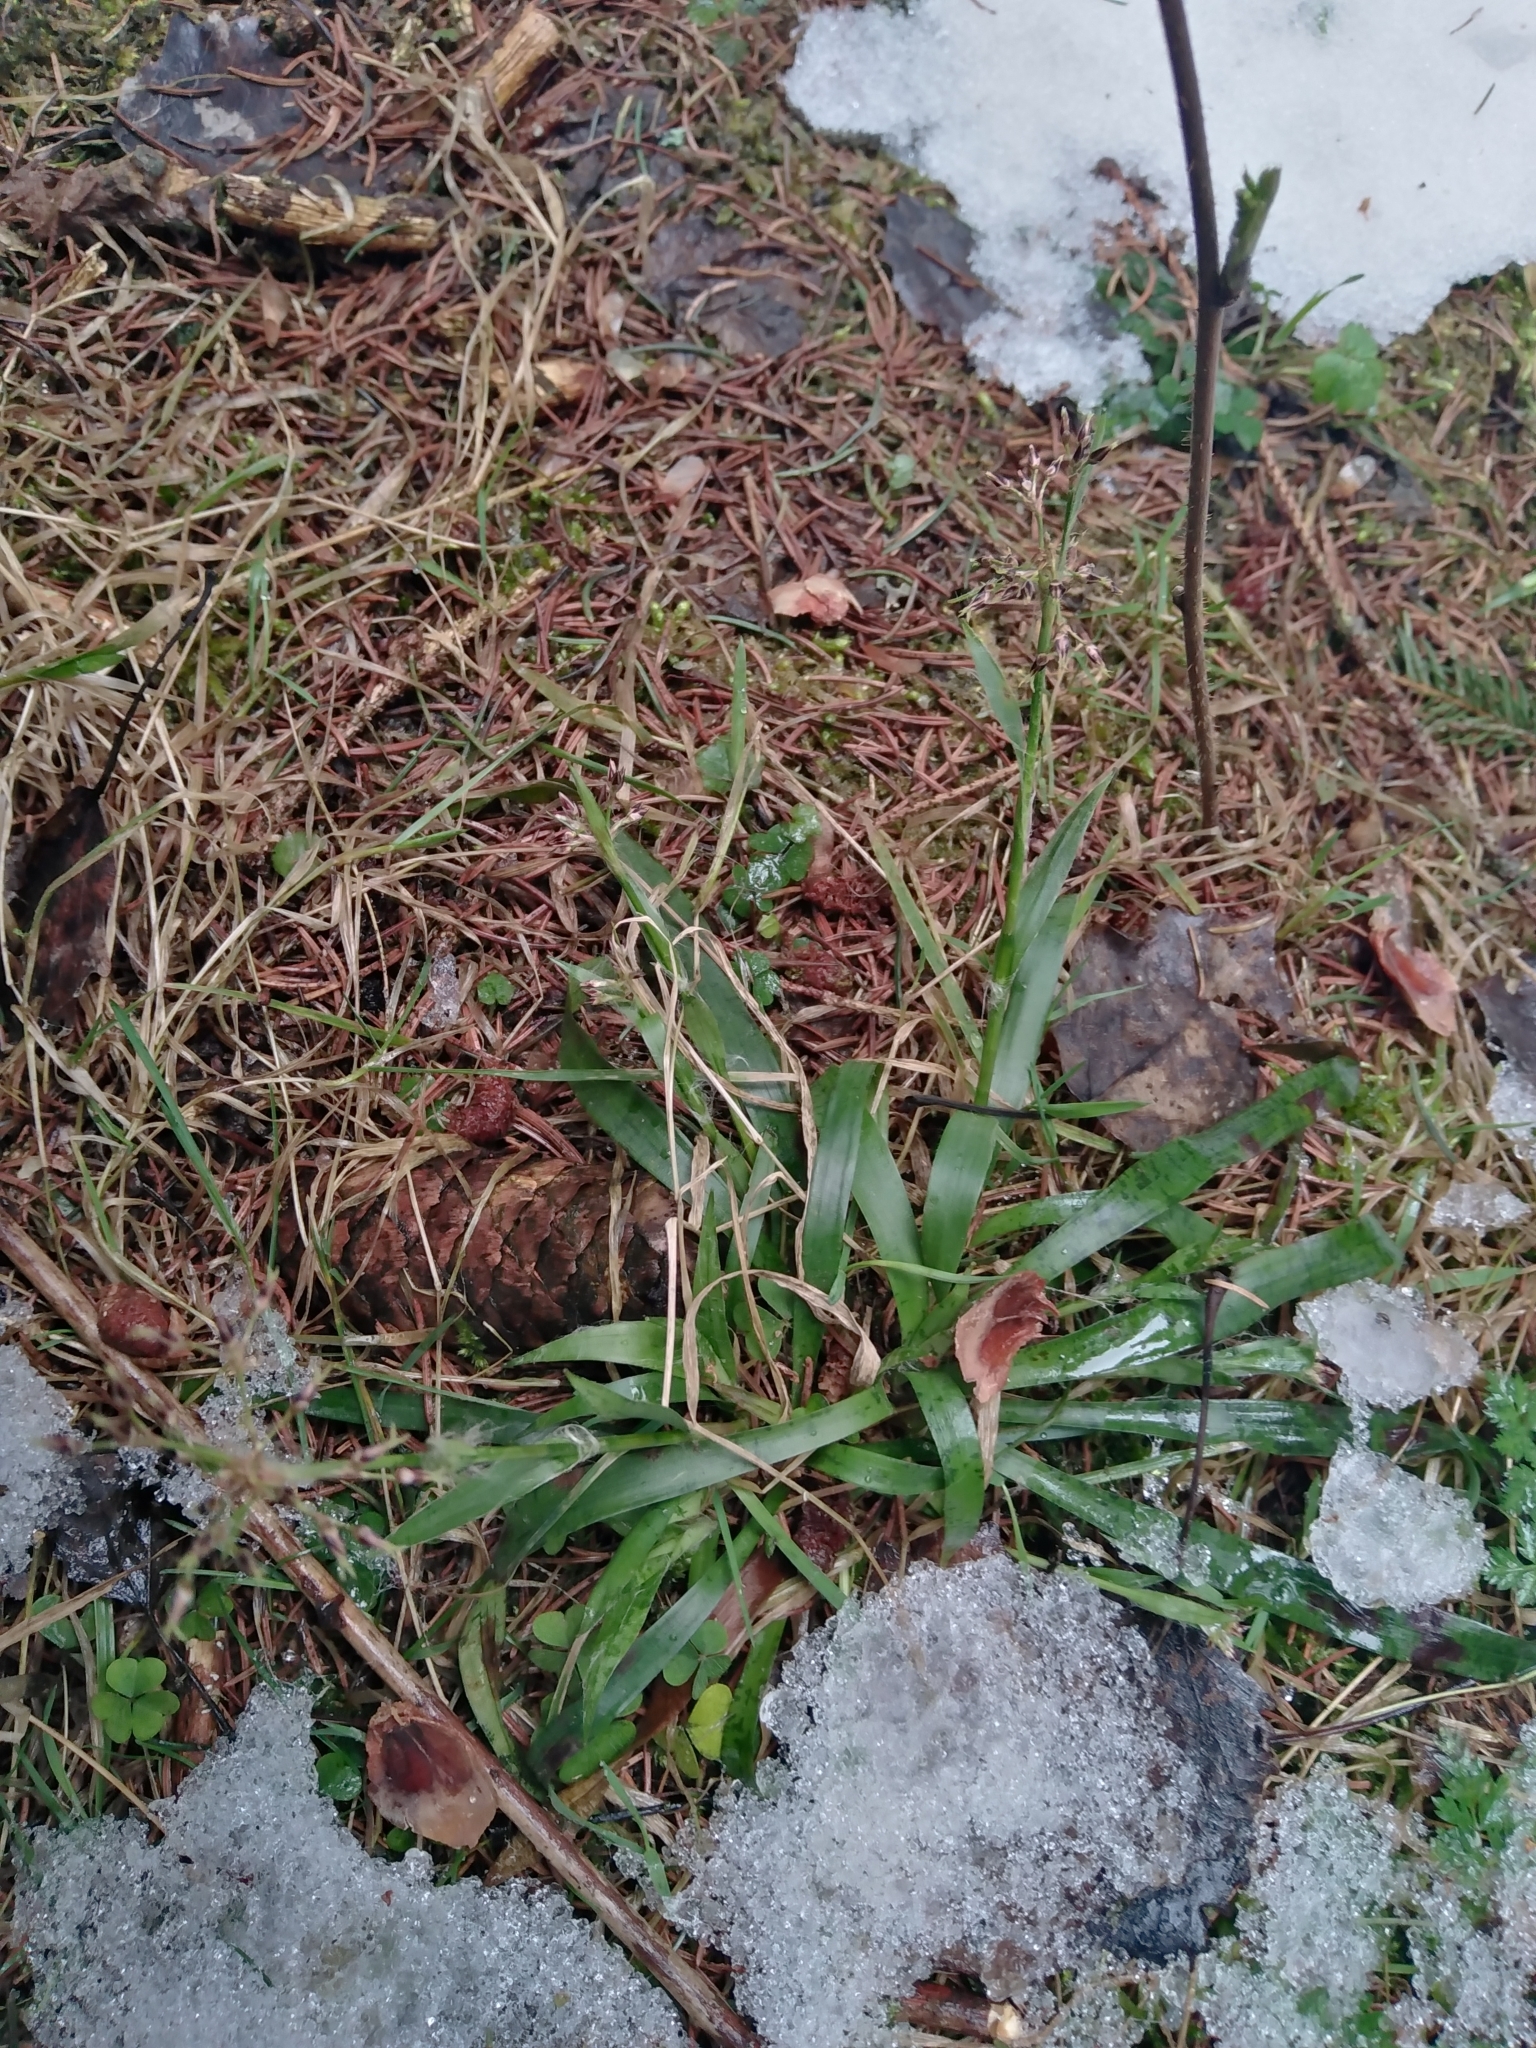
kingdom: Plantae
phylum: Tracheophyta
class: Liliopsida
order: Poales
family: Juncaceae
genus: Luzula
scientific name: Luzula pilosa
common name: Hairy wood-rush
